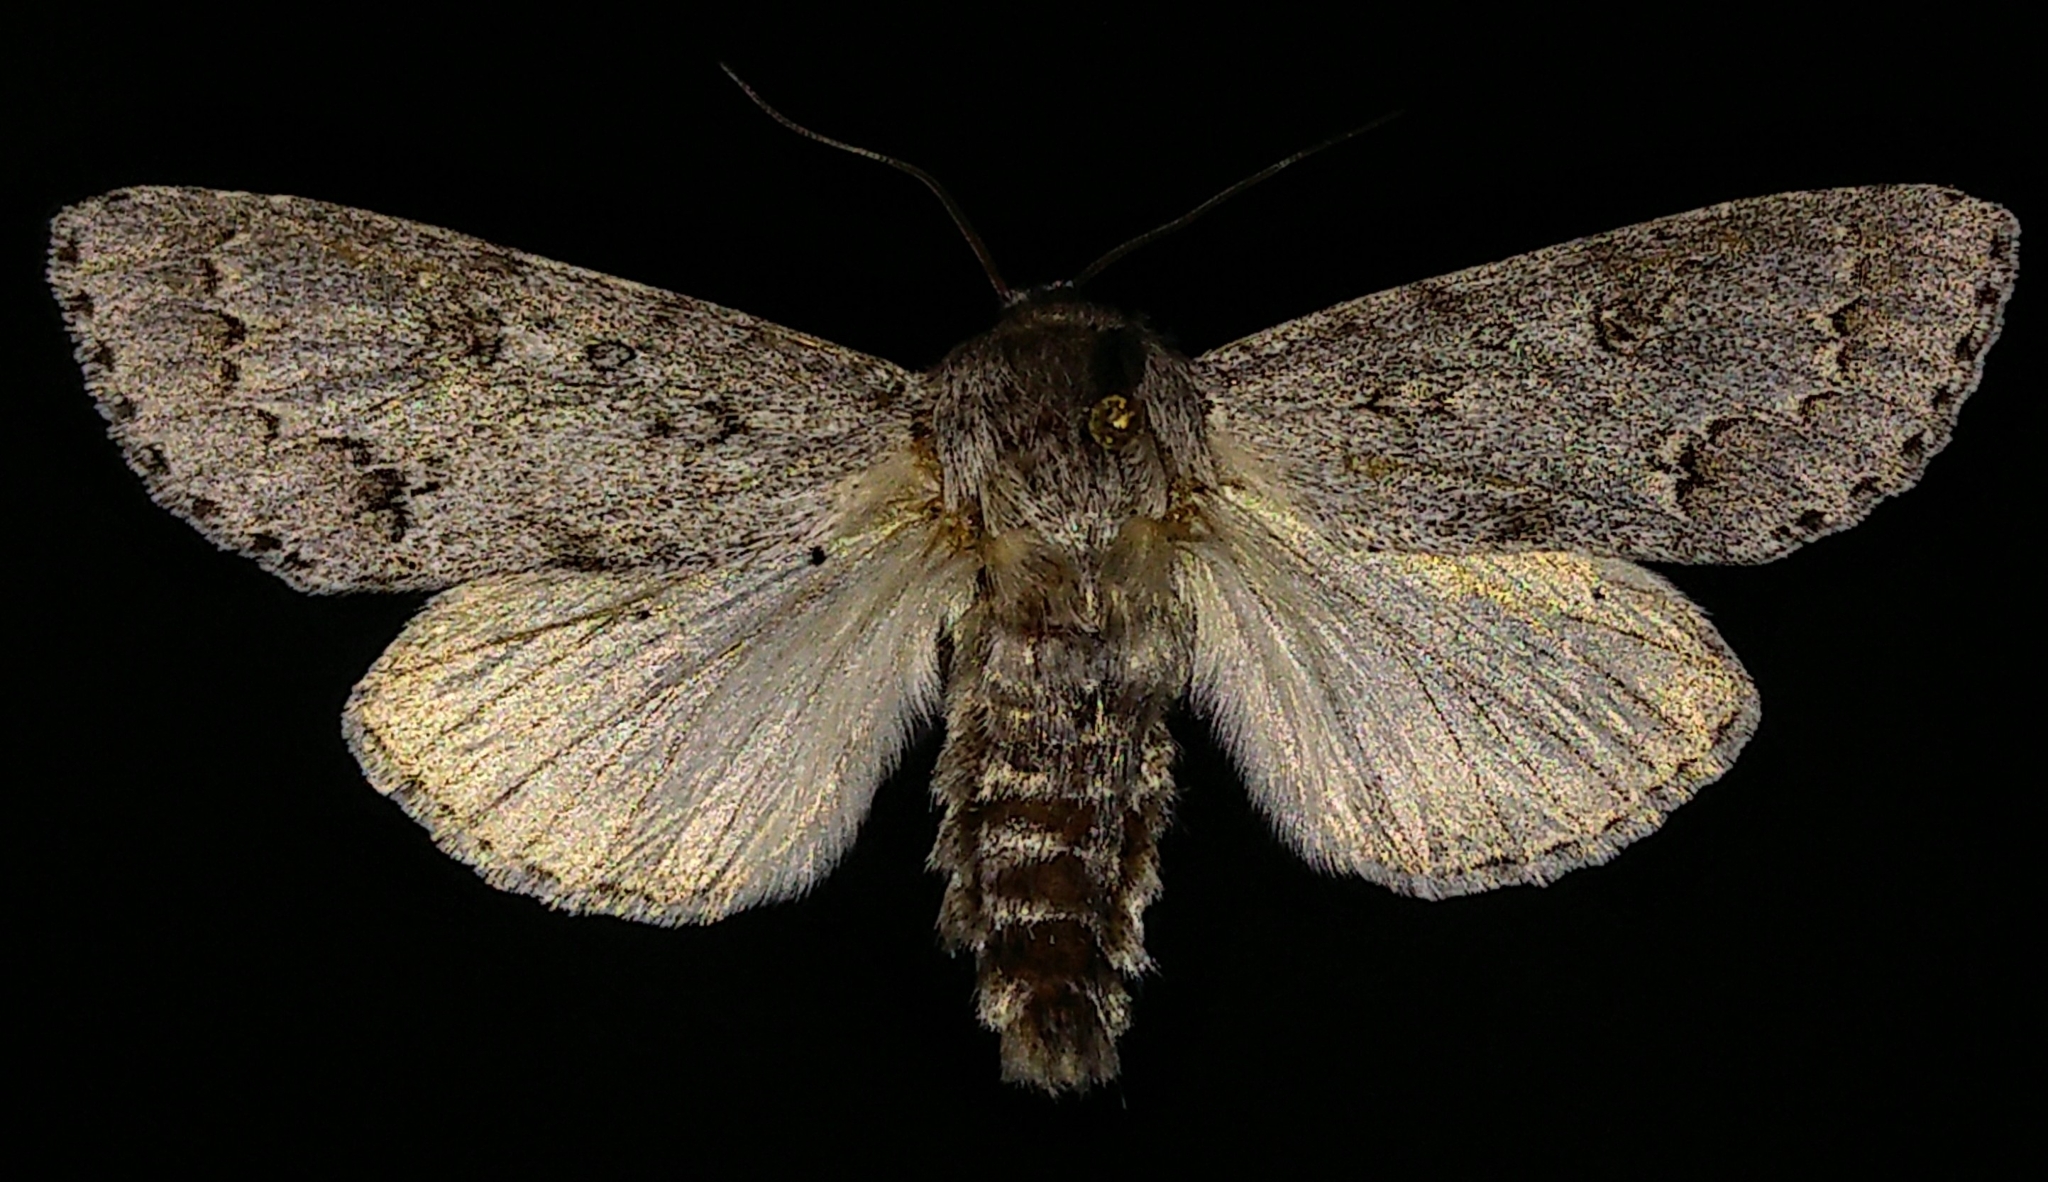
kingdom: Animalia
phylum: Arthropoda
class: Insecta
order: Lepidoptera
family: Noctuidae
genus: Acronicta
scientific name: Acronicta insita
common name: Large gray dagger
